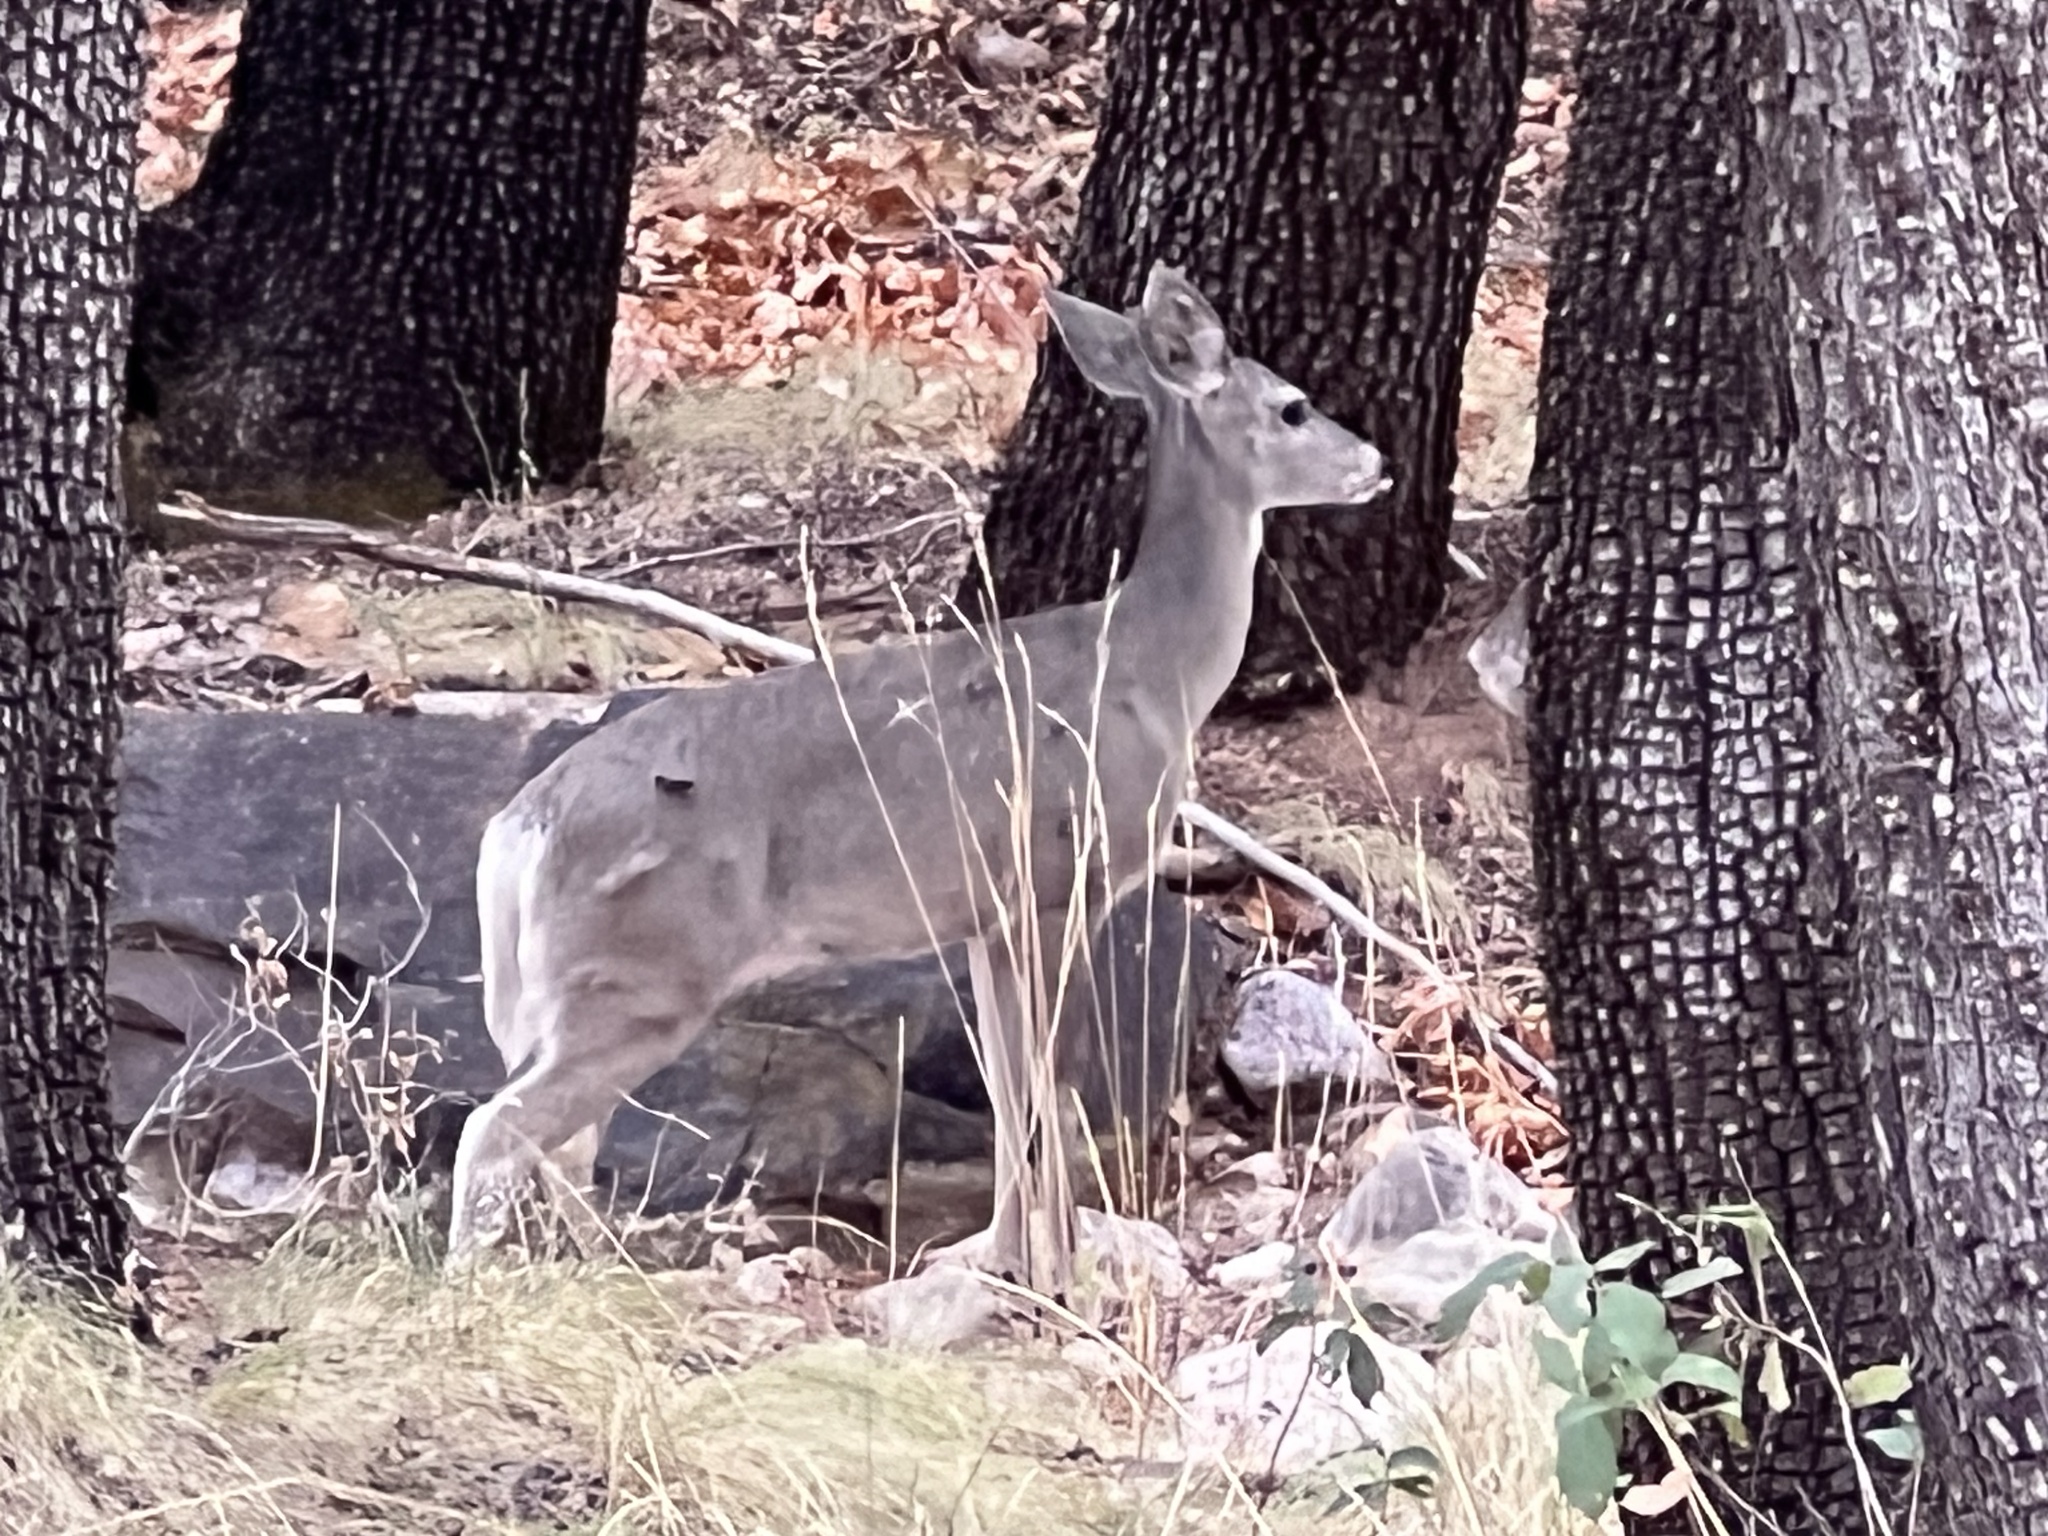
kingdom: Animalia
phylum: Chordata
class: Mammalia
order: Artiodactyla
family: Cervidae
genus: Odocoileus
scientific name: Odocoileus virginianus
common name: White-tailed deer
